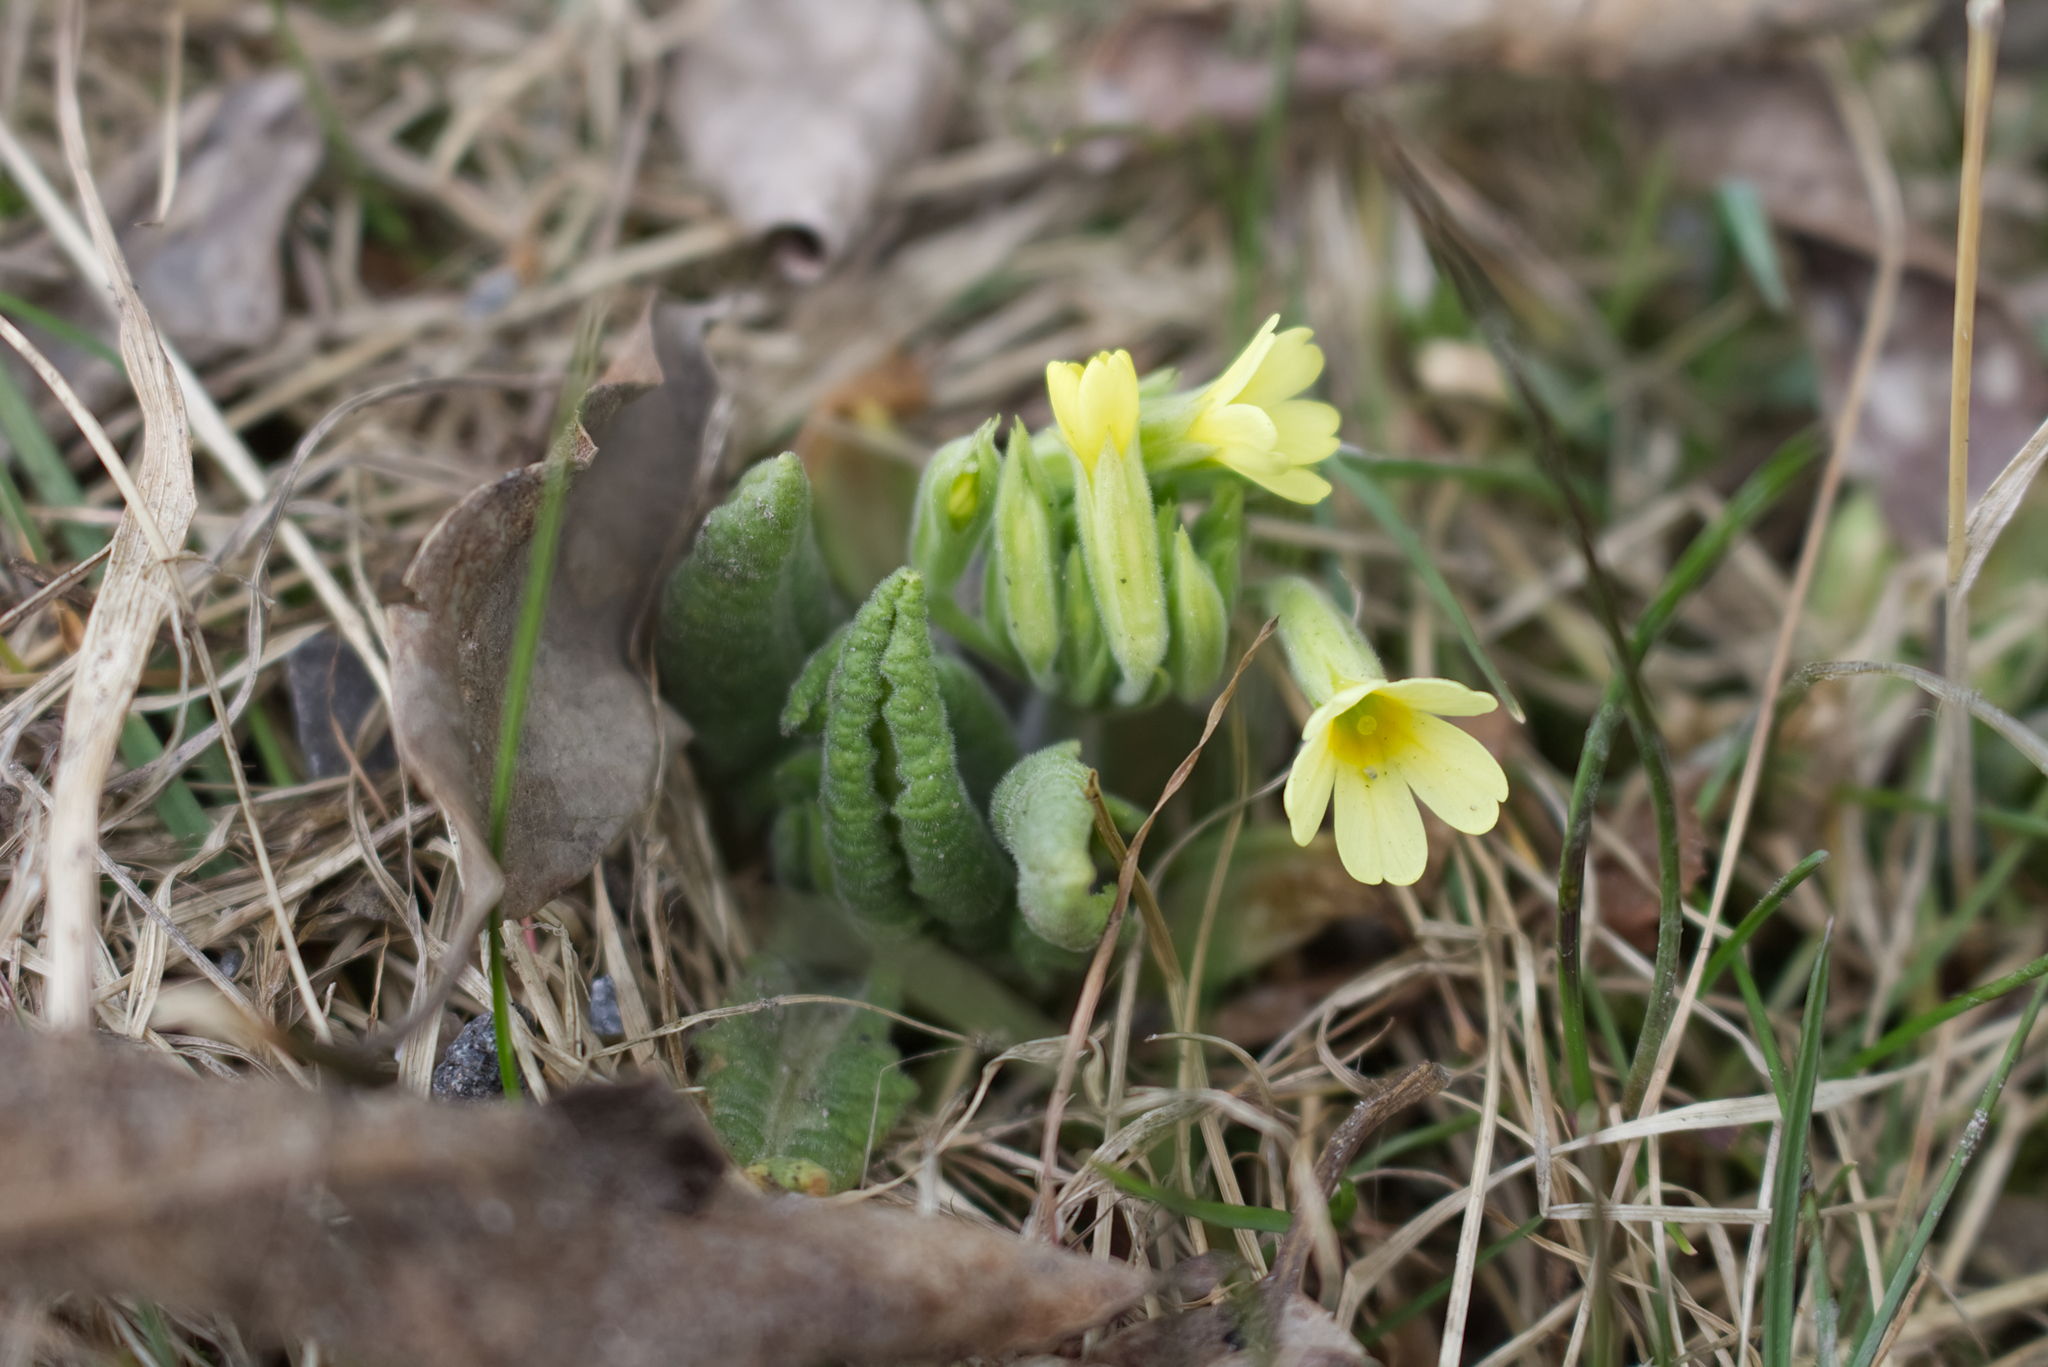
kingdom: Plantae
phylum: Tracheophyta
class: Magnoliopsida
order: Ericales
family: Primulaceae
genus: Primula
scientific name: Primula elatior
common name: Oxlip
